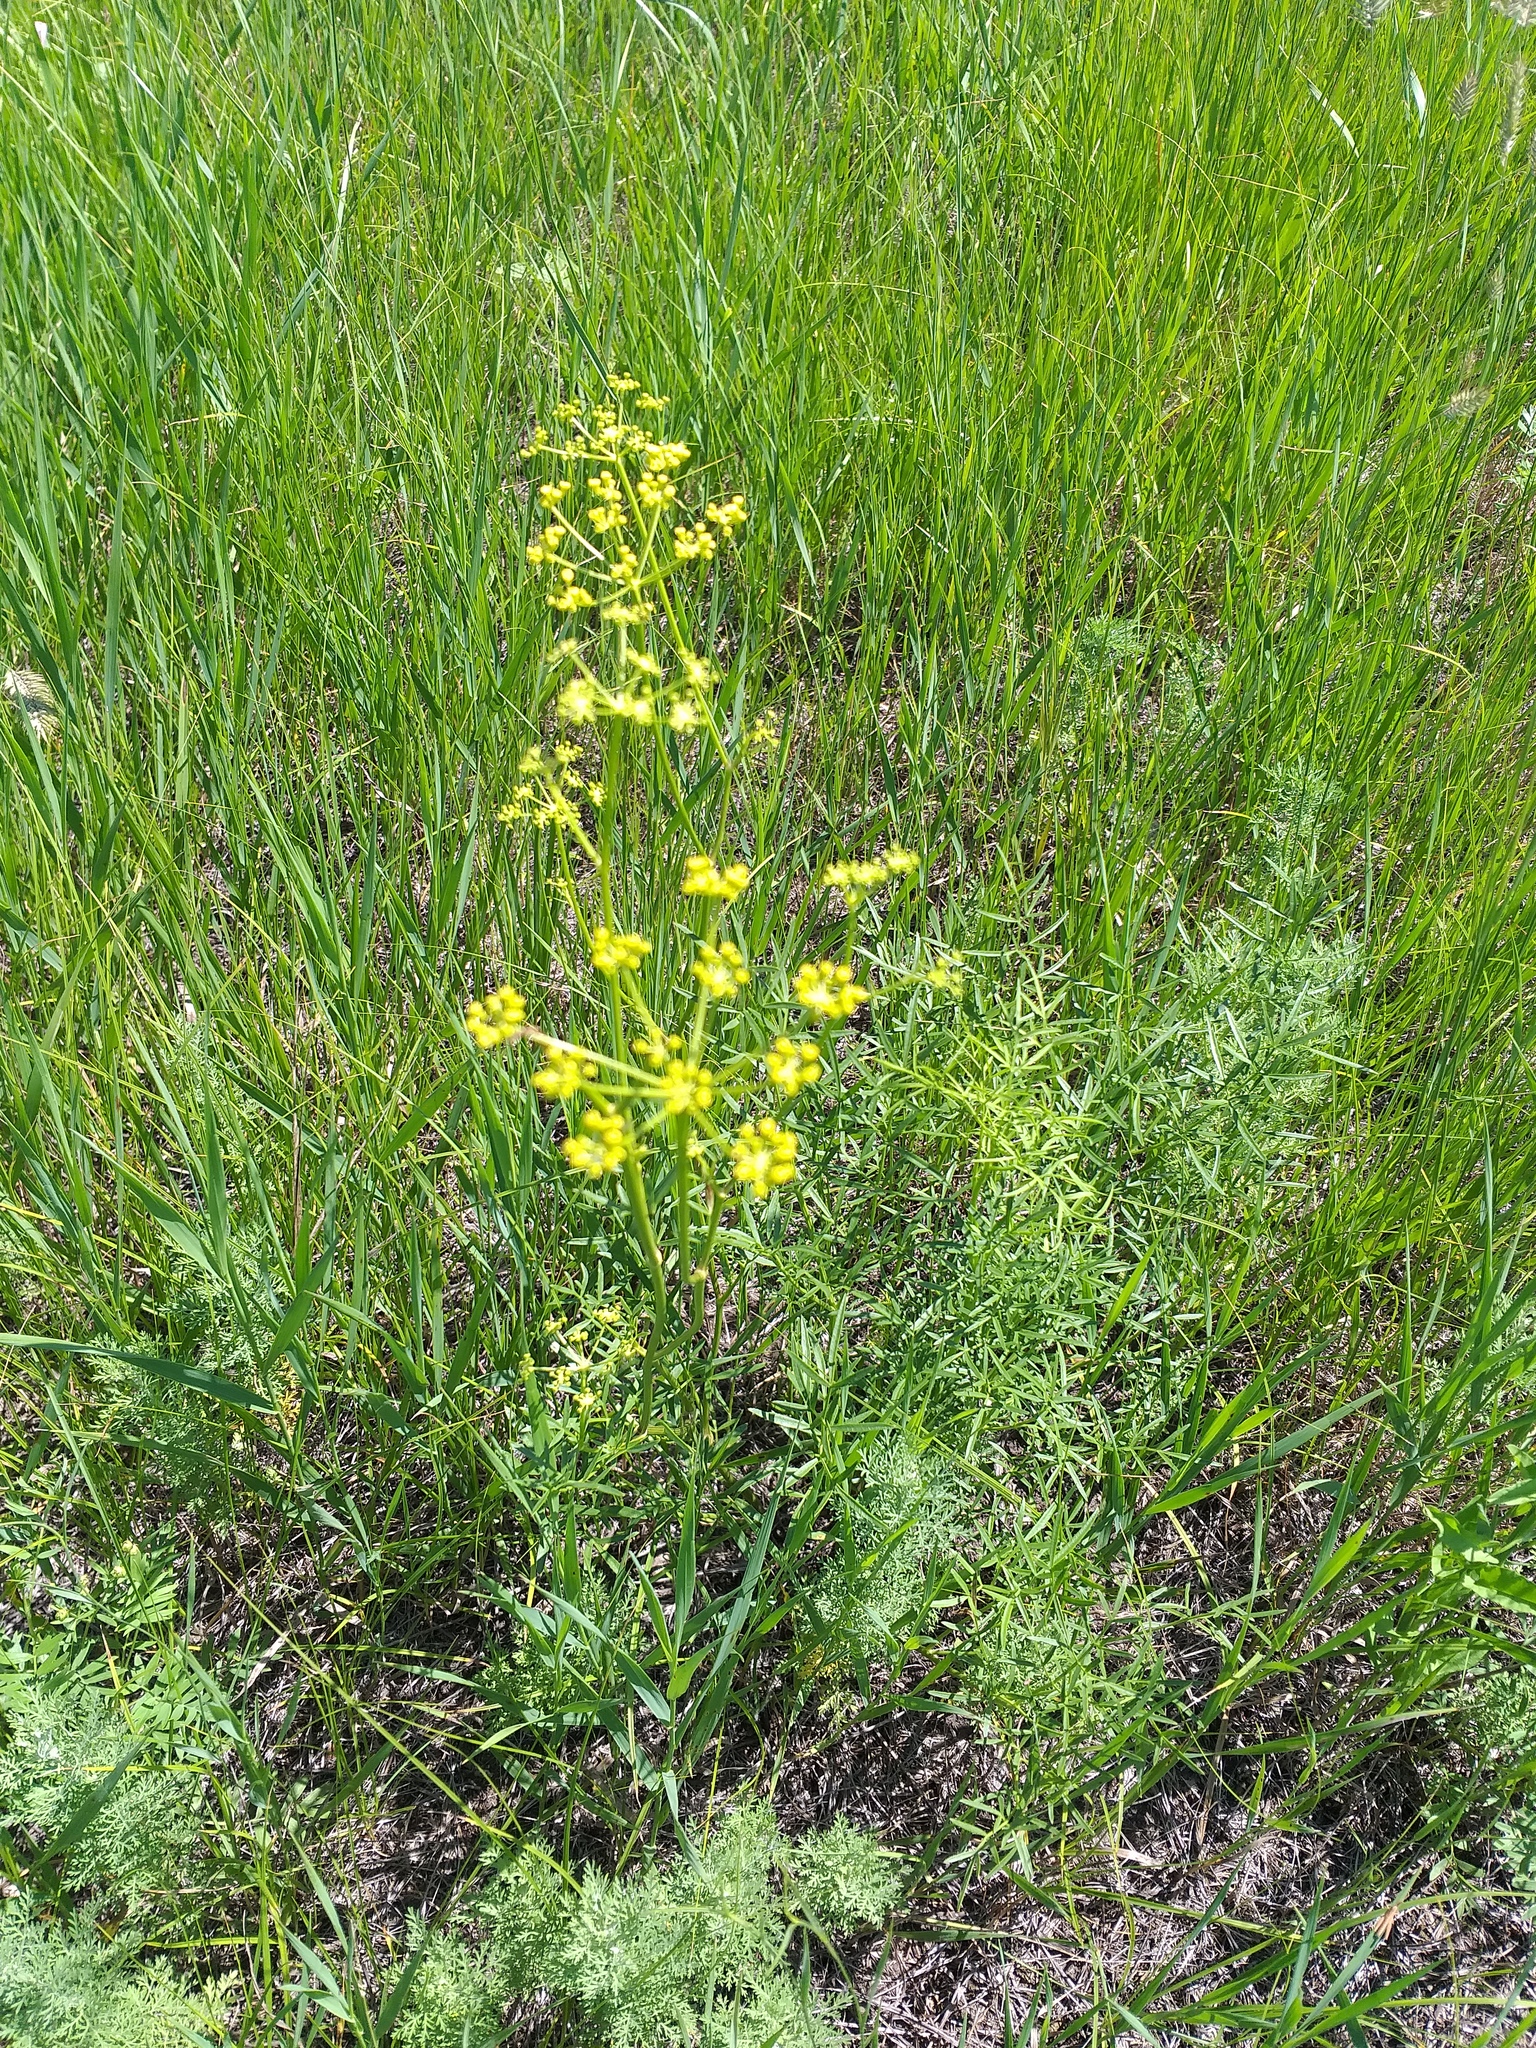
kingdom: Plantae
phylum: Tracheophyta
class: Magnoliopsida
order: Apiales
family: Apiaceae
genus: Silaum
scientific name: Silaum silaus
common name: Pepper-saxifrage
